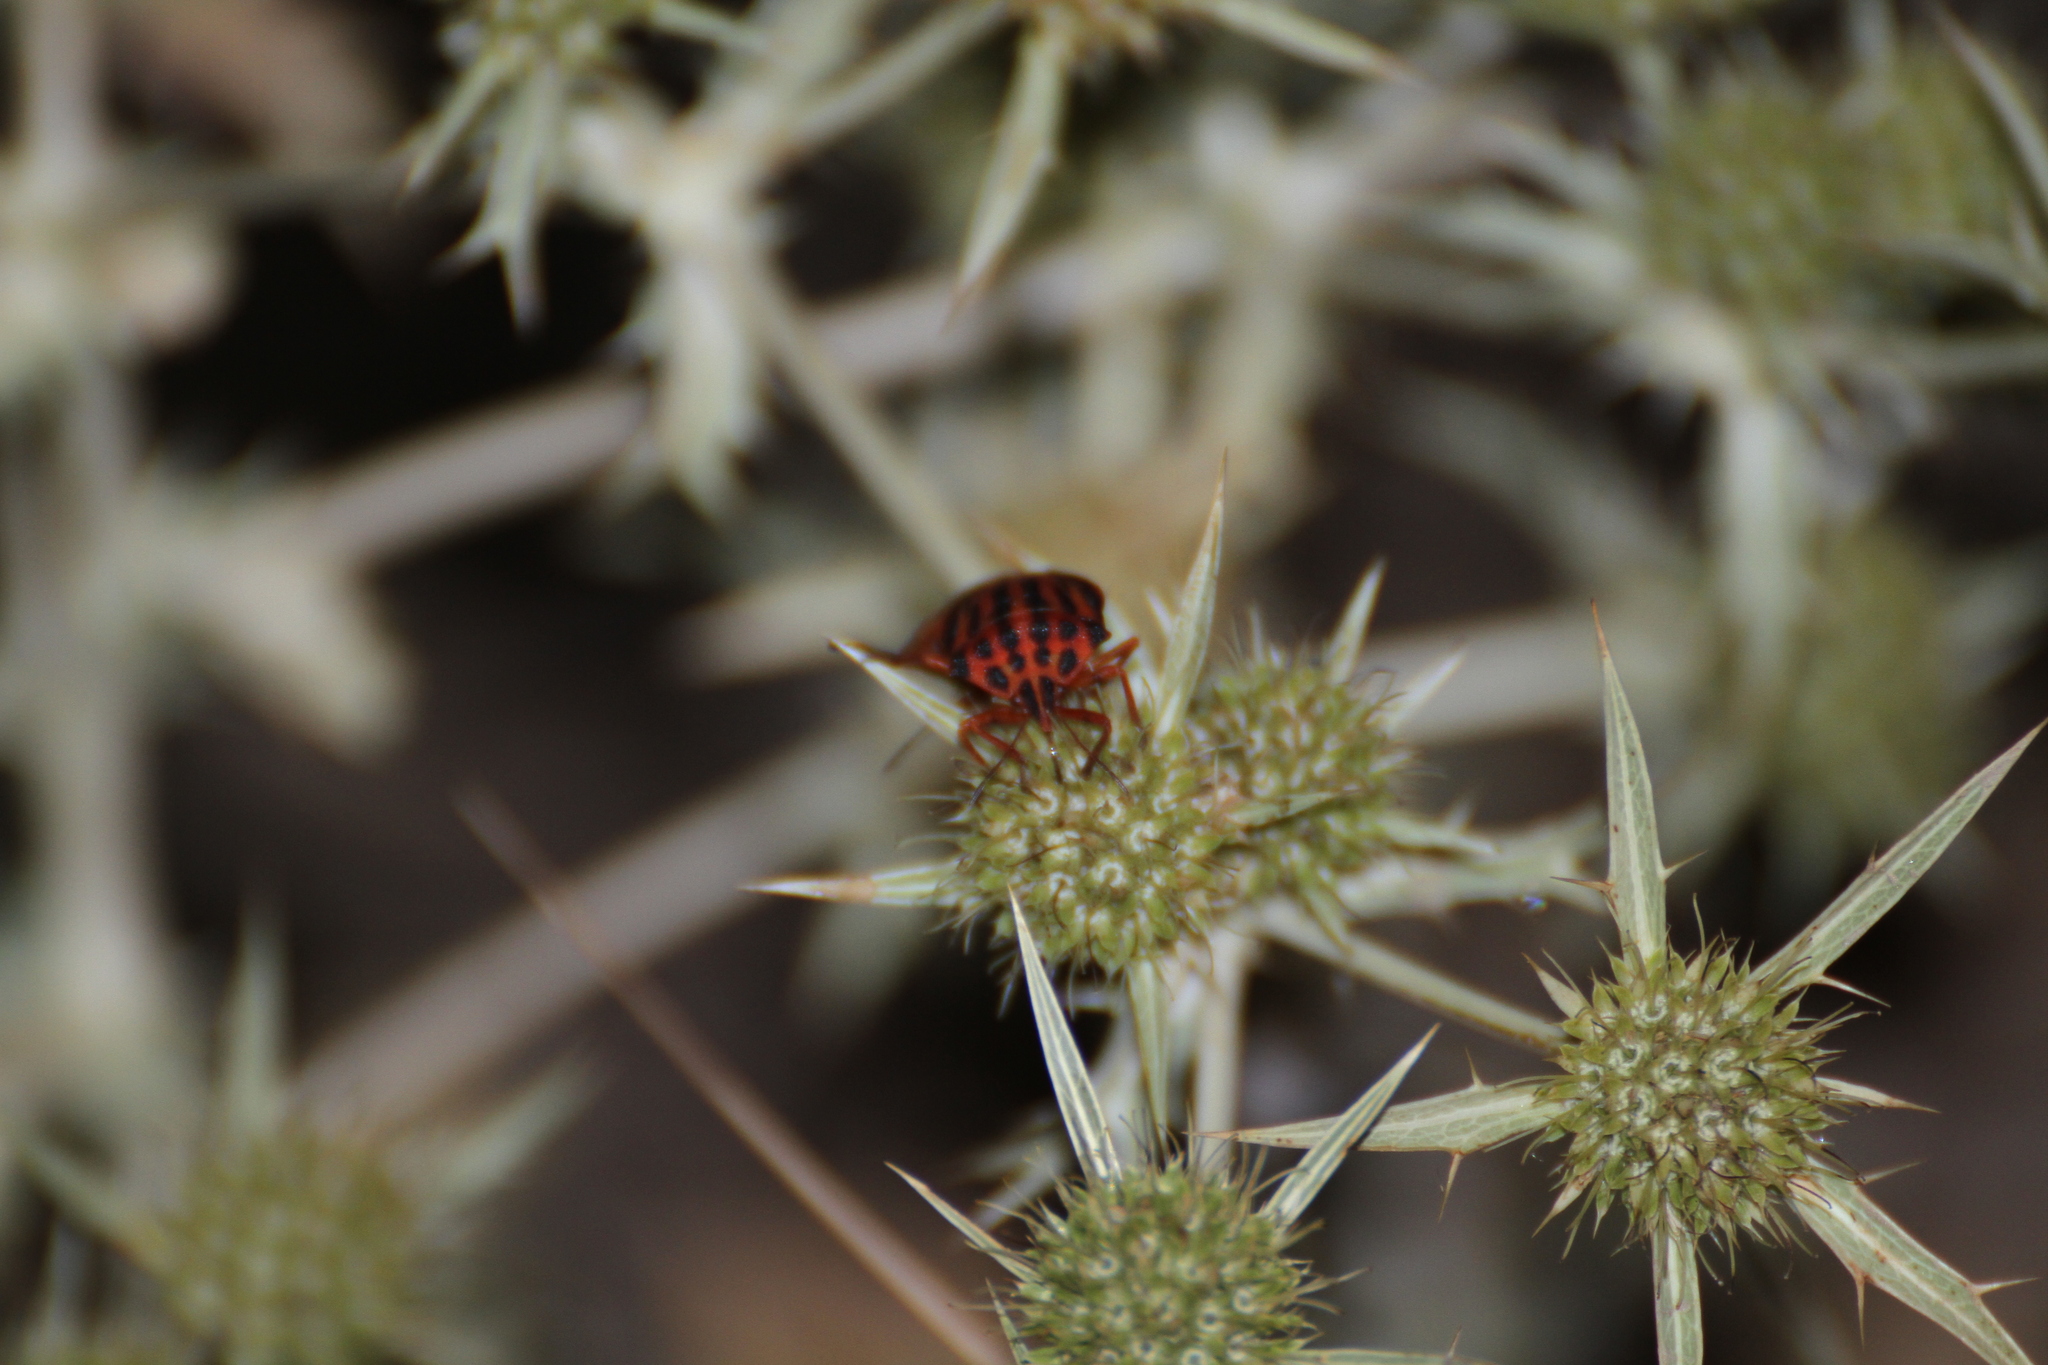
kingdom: Animalia
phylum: Arthropoda
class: Insecta
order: Hemiptera
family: Pentatomidae
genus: Graphosoma
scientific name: Graphosoma semipunctatum
